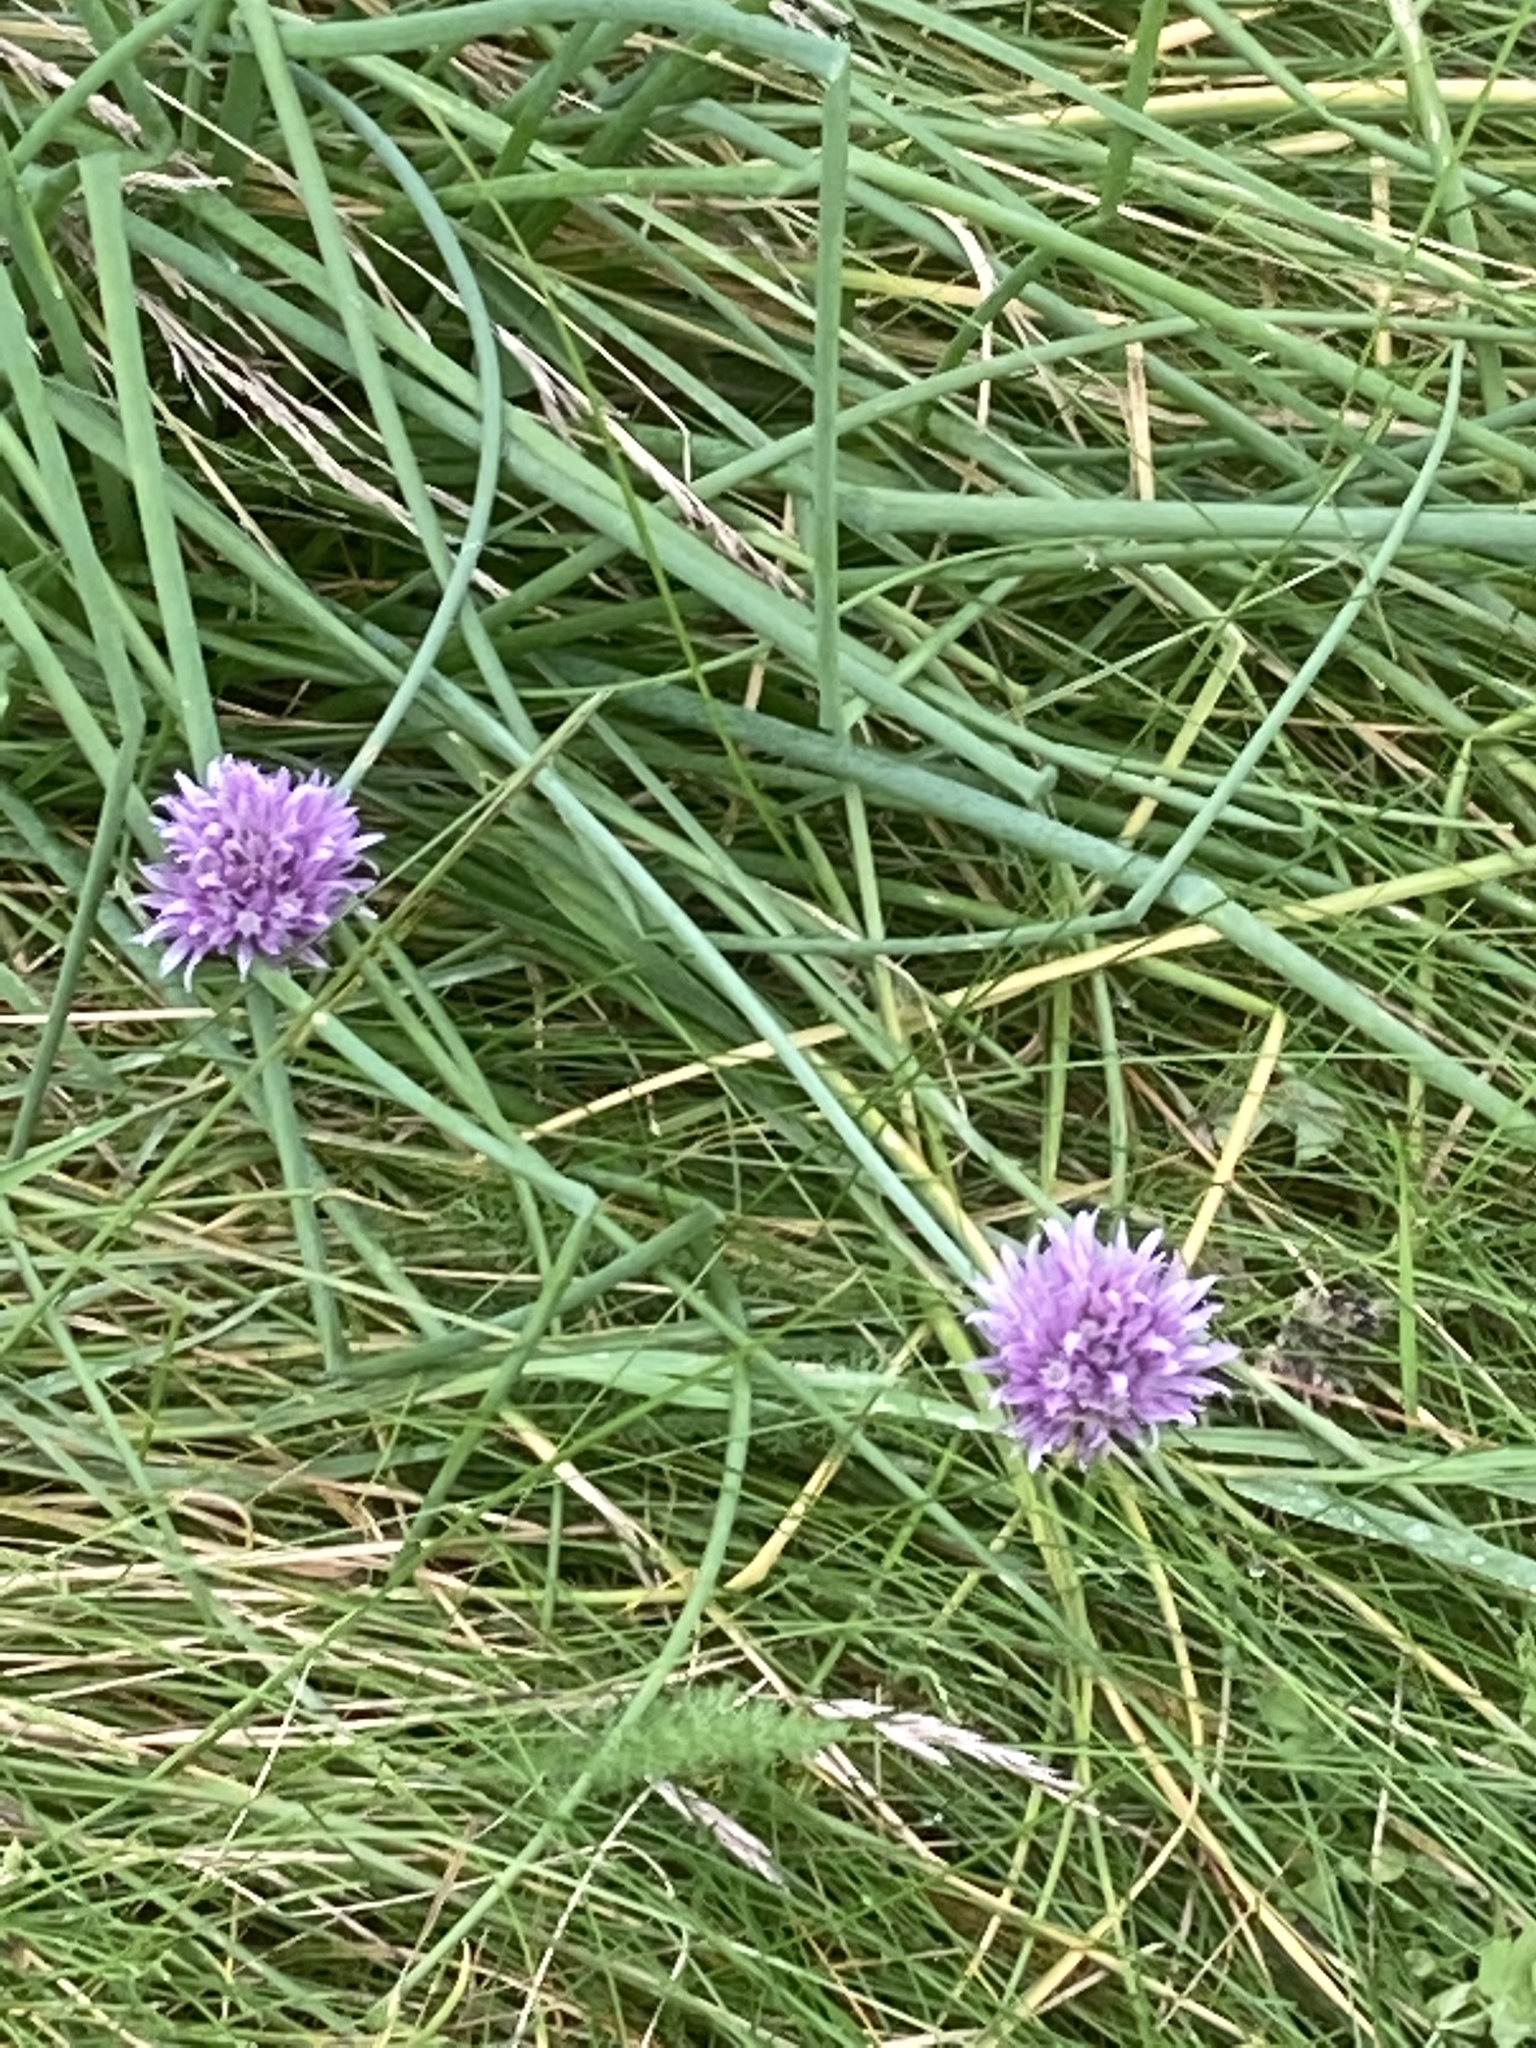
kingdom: Plantae
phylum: Tracheophyta
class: Liliopsida
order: Asparagales
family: Amaryllidaceae
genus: Allium
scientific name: Allium schoenoprasum
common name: Chives
